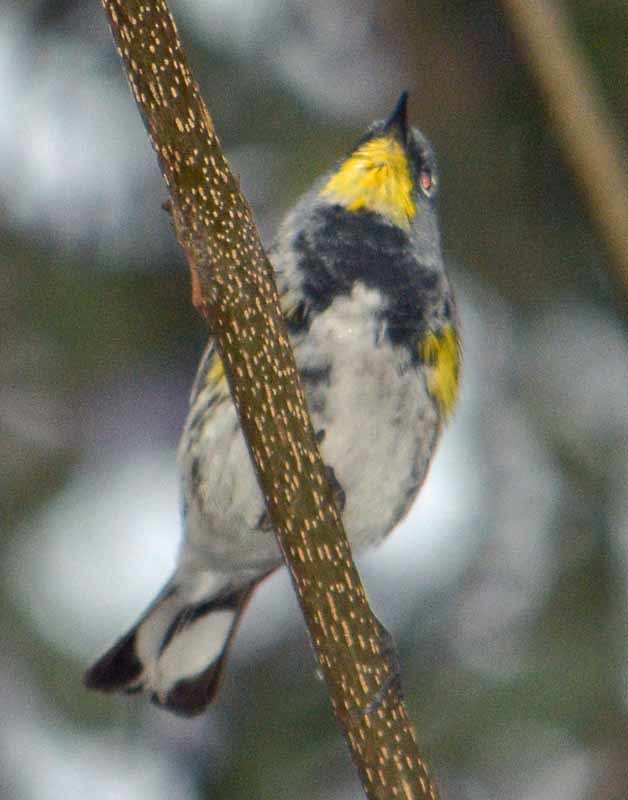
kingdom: Animalia
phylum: Chordata
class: Aves
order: Passeriformes
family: Parulidae
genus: Setophaga
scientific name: Setophaga coronata
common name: Myrtle warbler
